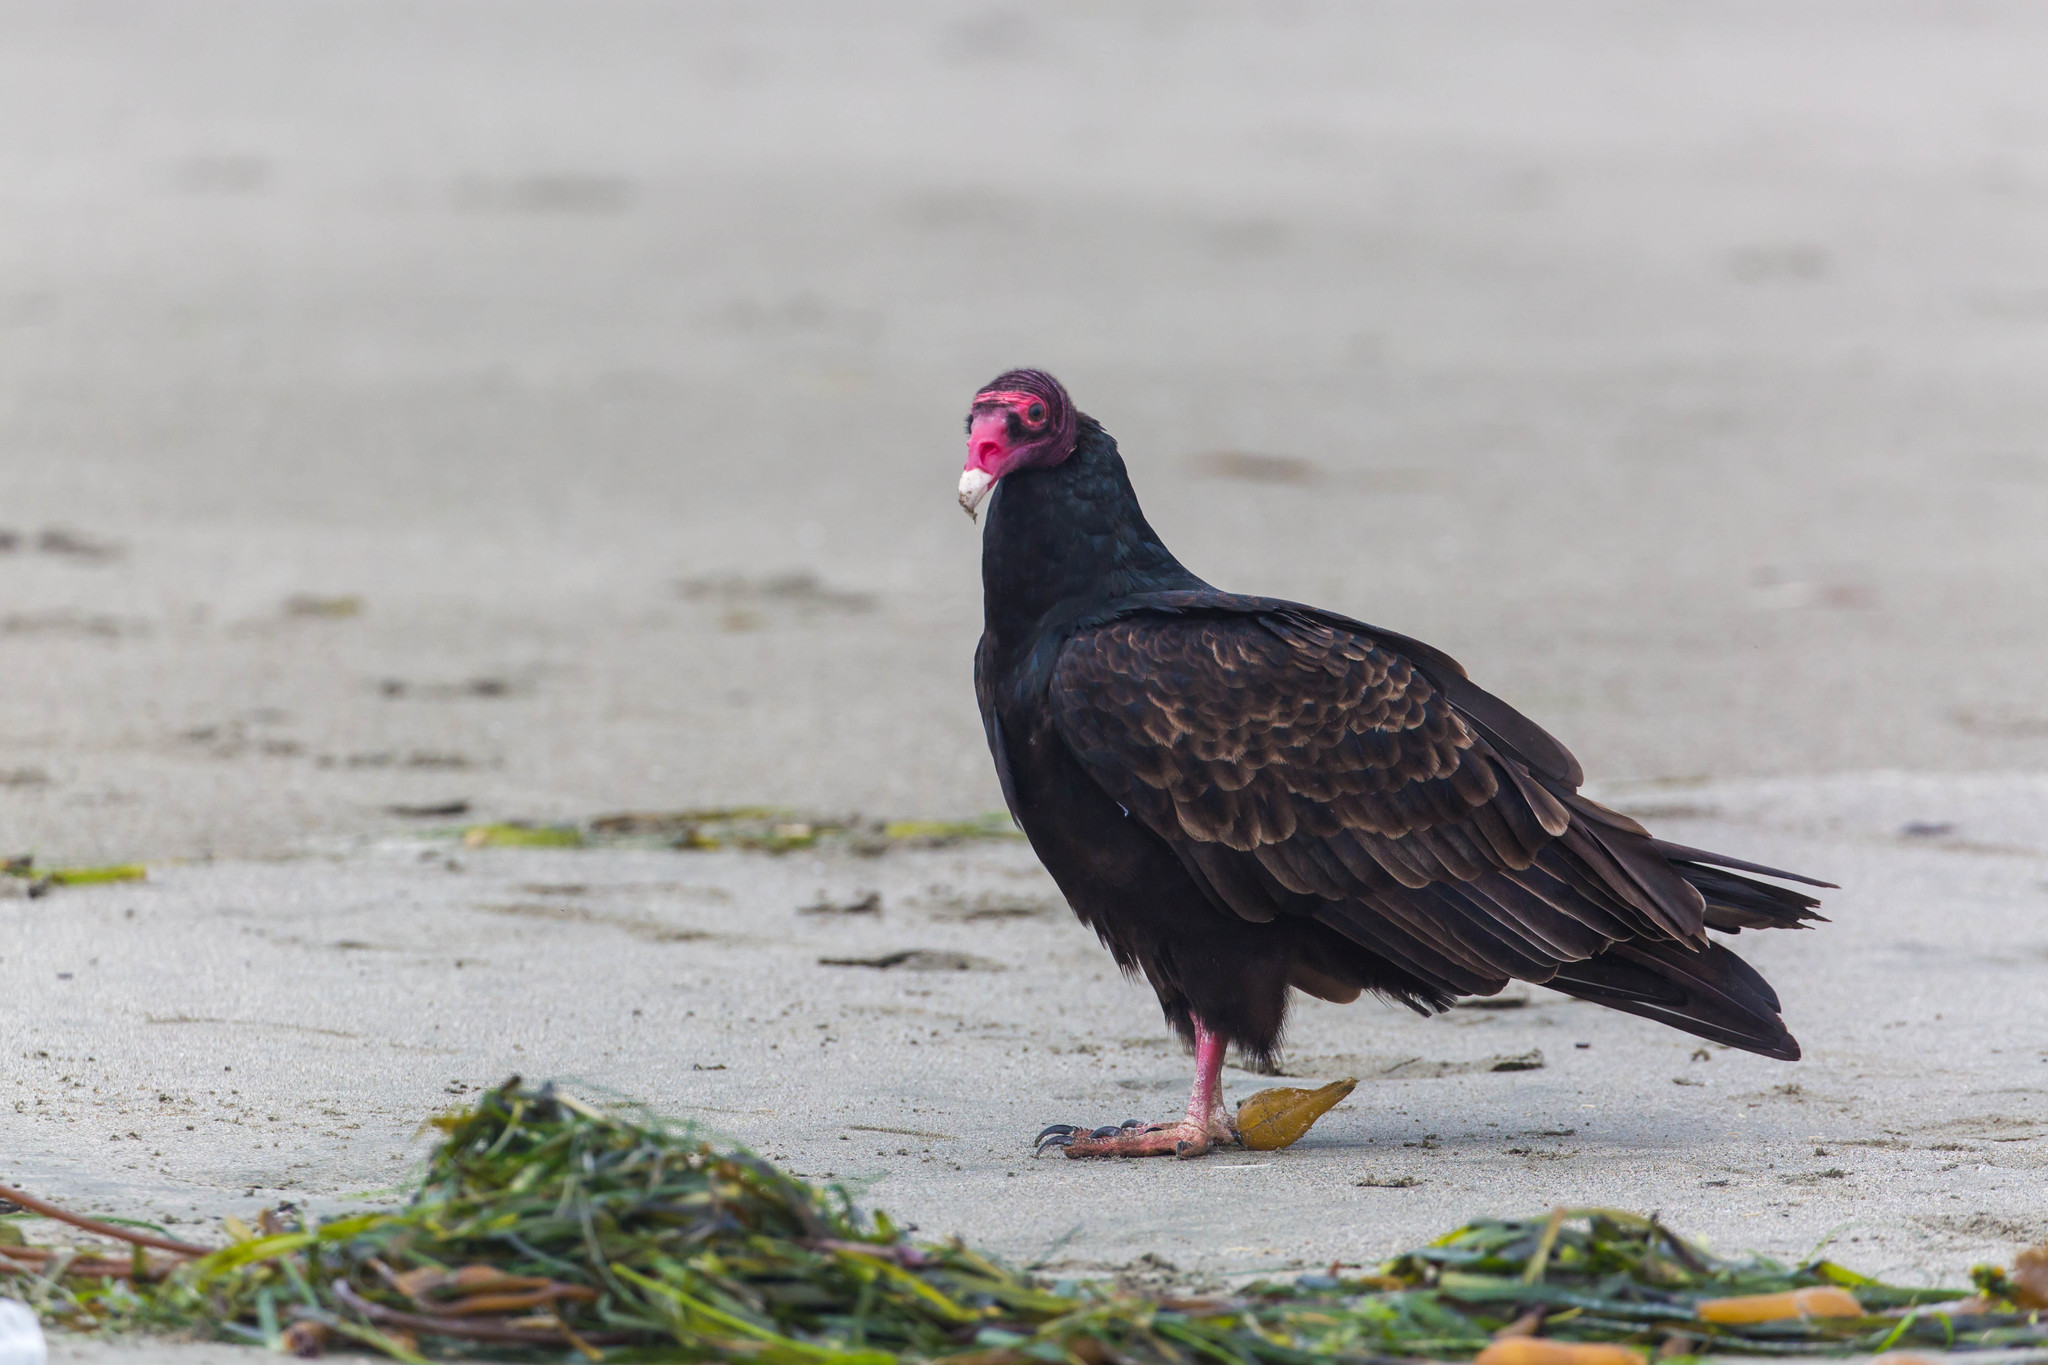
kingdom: Animalia
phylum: Chordata
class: Aves
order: Accipitriformes
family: Cathartidae
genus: Cathartes
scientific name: Cathartes aura
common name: Turkey vulture
